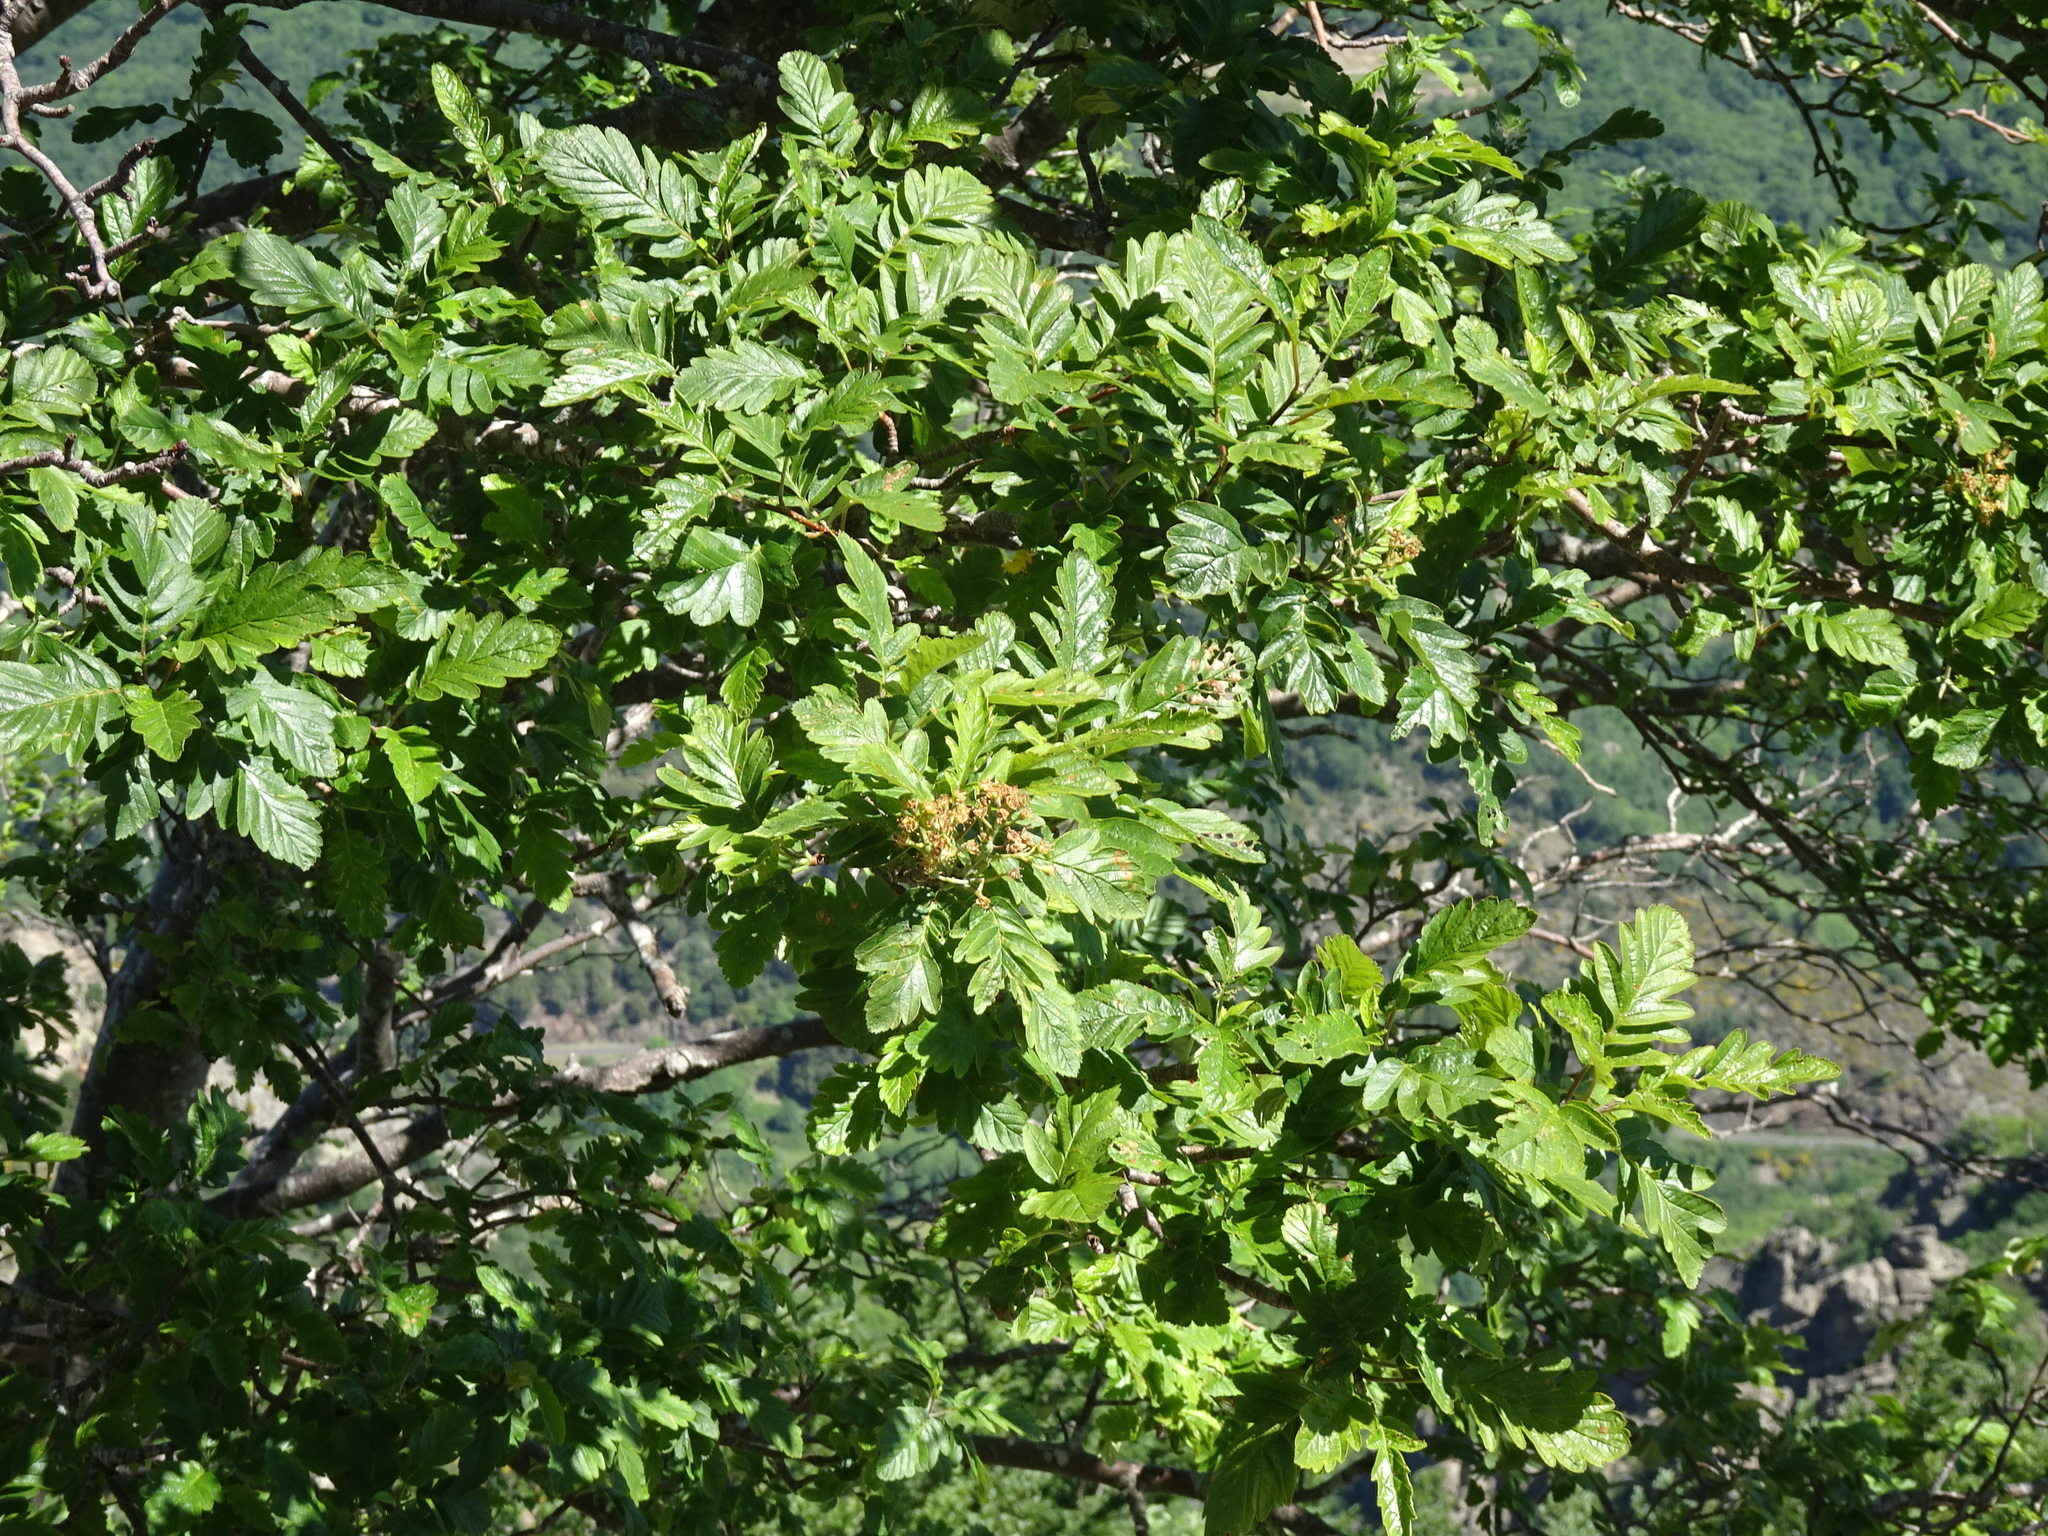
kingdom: Plantae
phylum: Tracheophyta
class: Magnoliopsida
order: Rosales
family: Rosaceae
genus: Hedlundia
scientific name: Hedlundia thuringiaca
